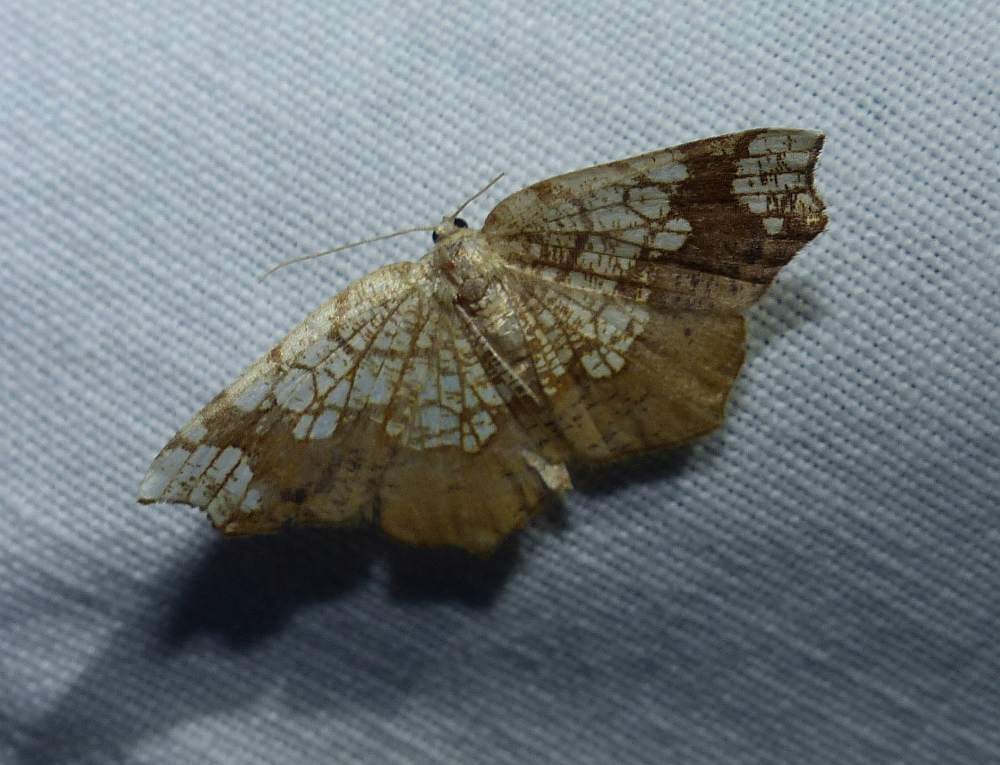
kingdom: Animalia
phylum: Arthropoda
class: Insecta
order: Lepidoptera
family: Geometridae
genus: Nematocampa
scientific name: Nematocampa resistaria
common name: Horned spanworm moth
